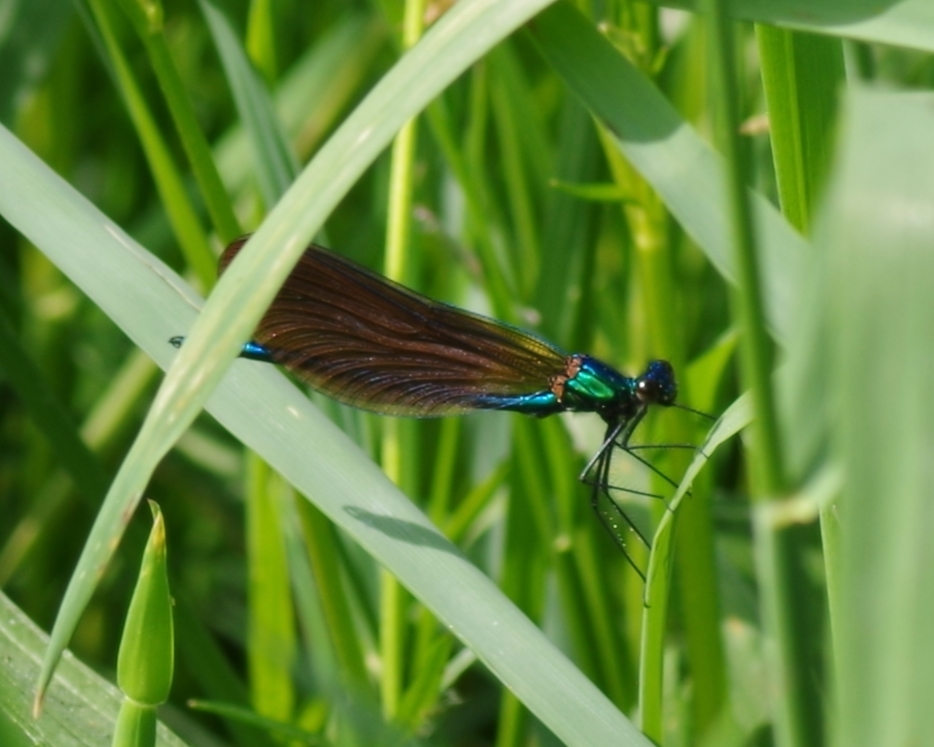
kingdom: Animalia
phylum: Arthropoda
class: Insecta
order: Odonata
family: Calopterygidae
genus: Calopteryx
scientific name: Calopteryx virgo
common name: Beautiful demoiselle
